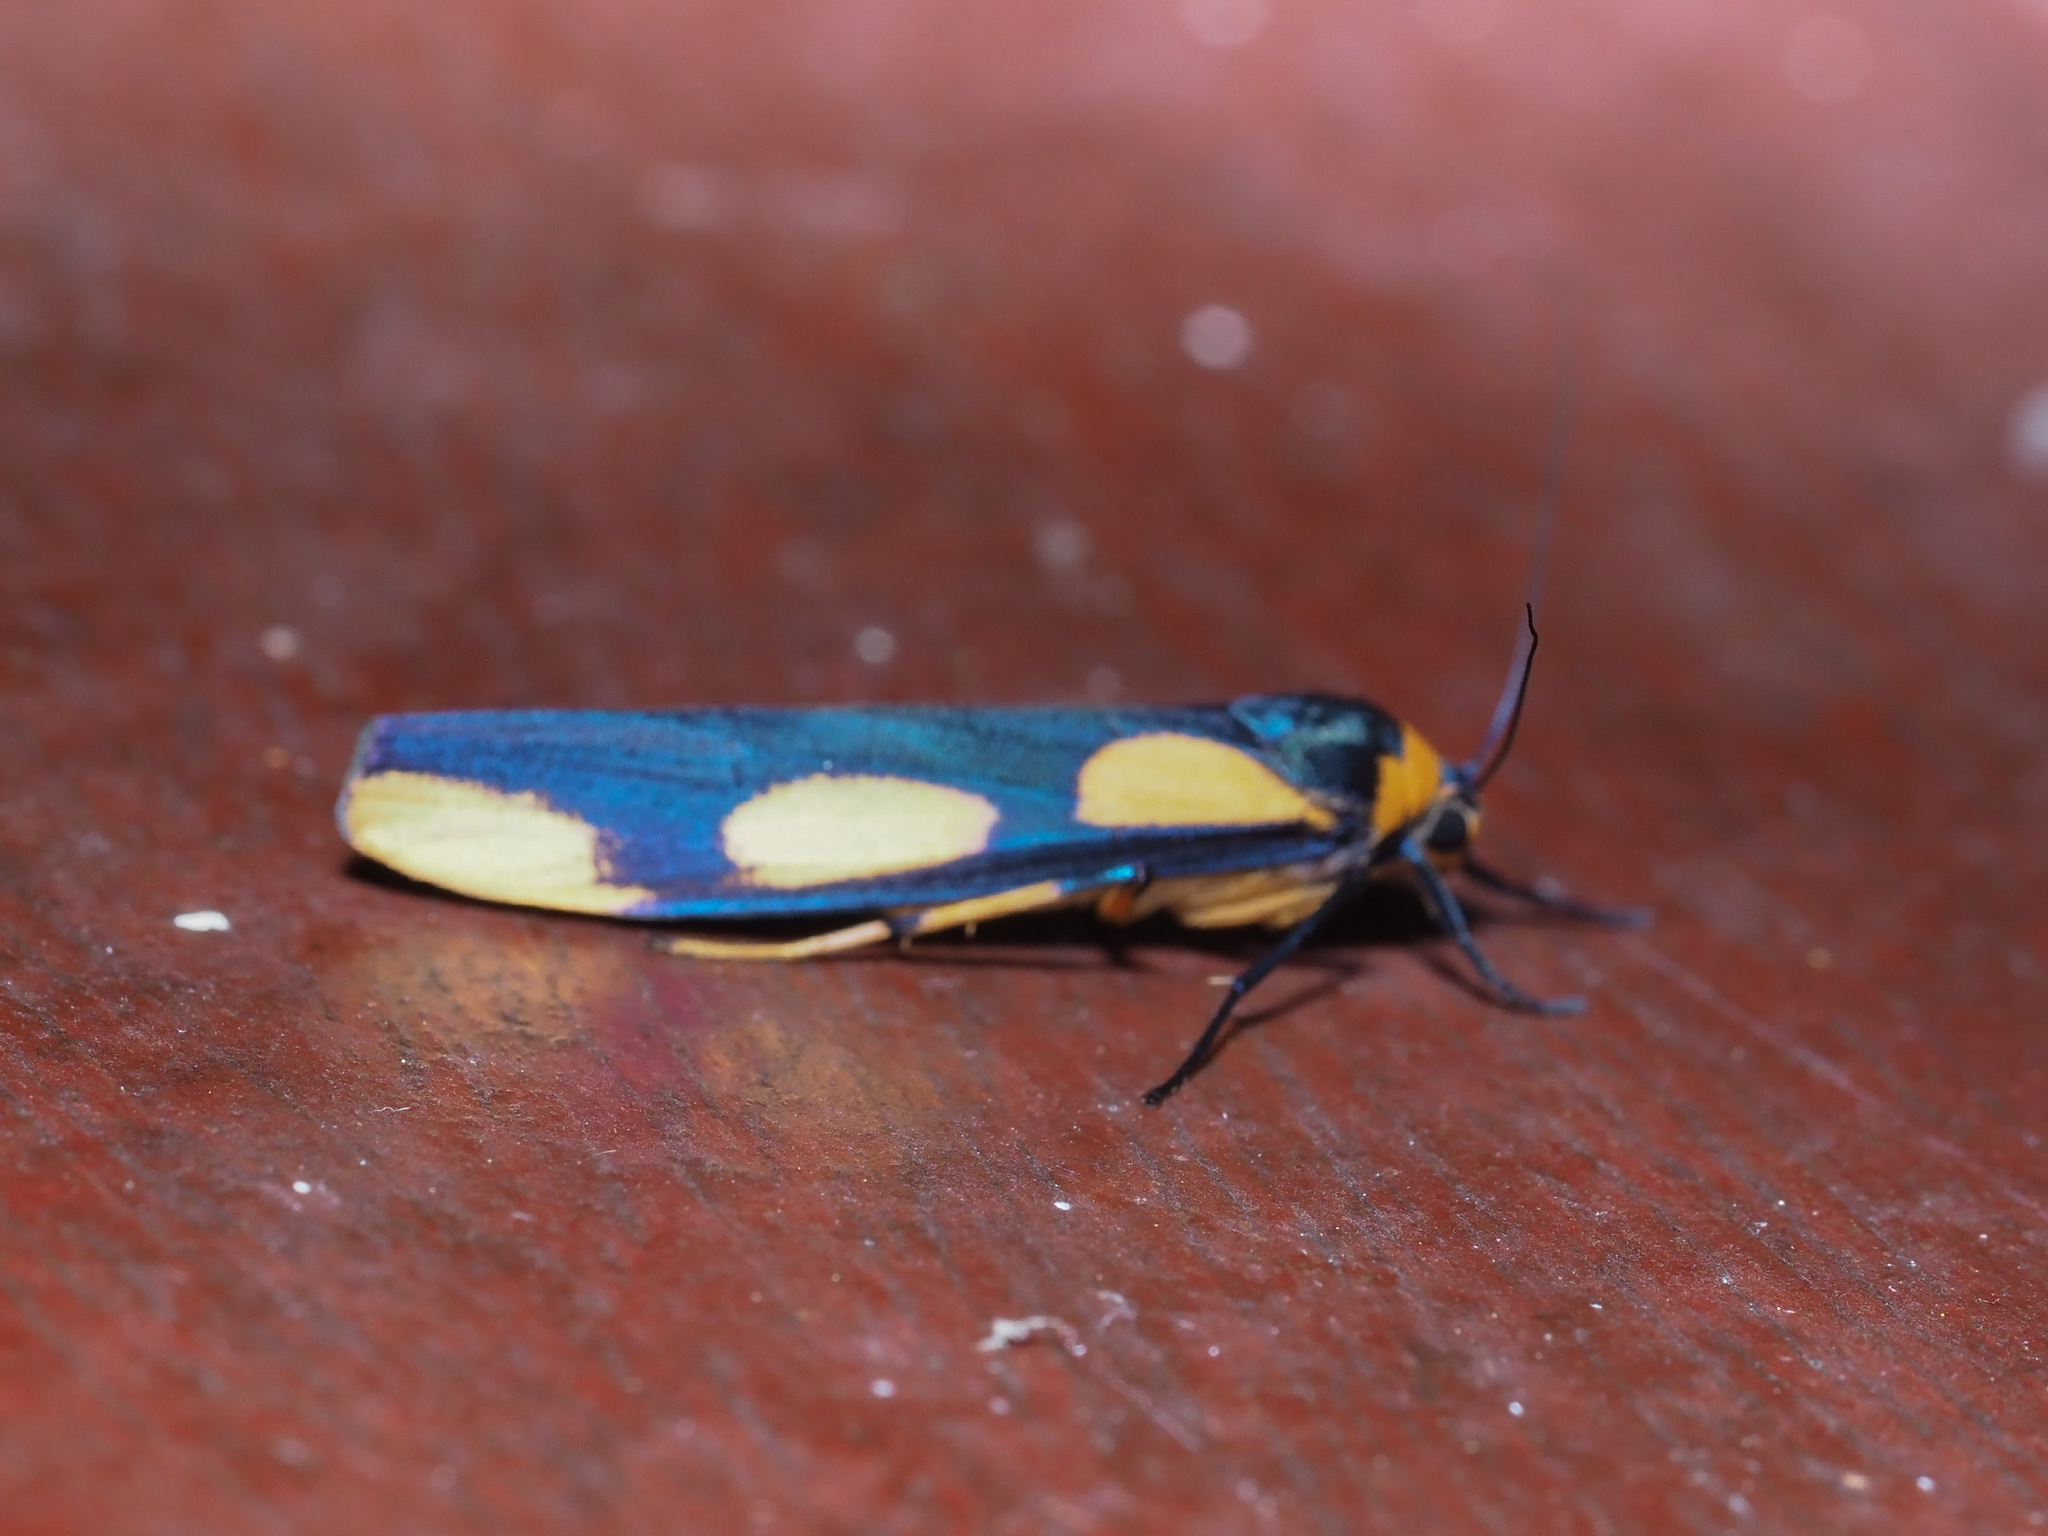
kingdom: Animalia
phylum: Arthropoda
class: Insecta
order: Lepidoptera
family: Erebidae
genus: Monosyntaxis
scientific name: Monosyntaxis trimaculata
